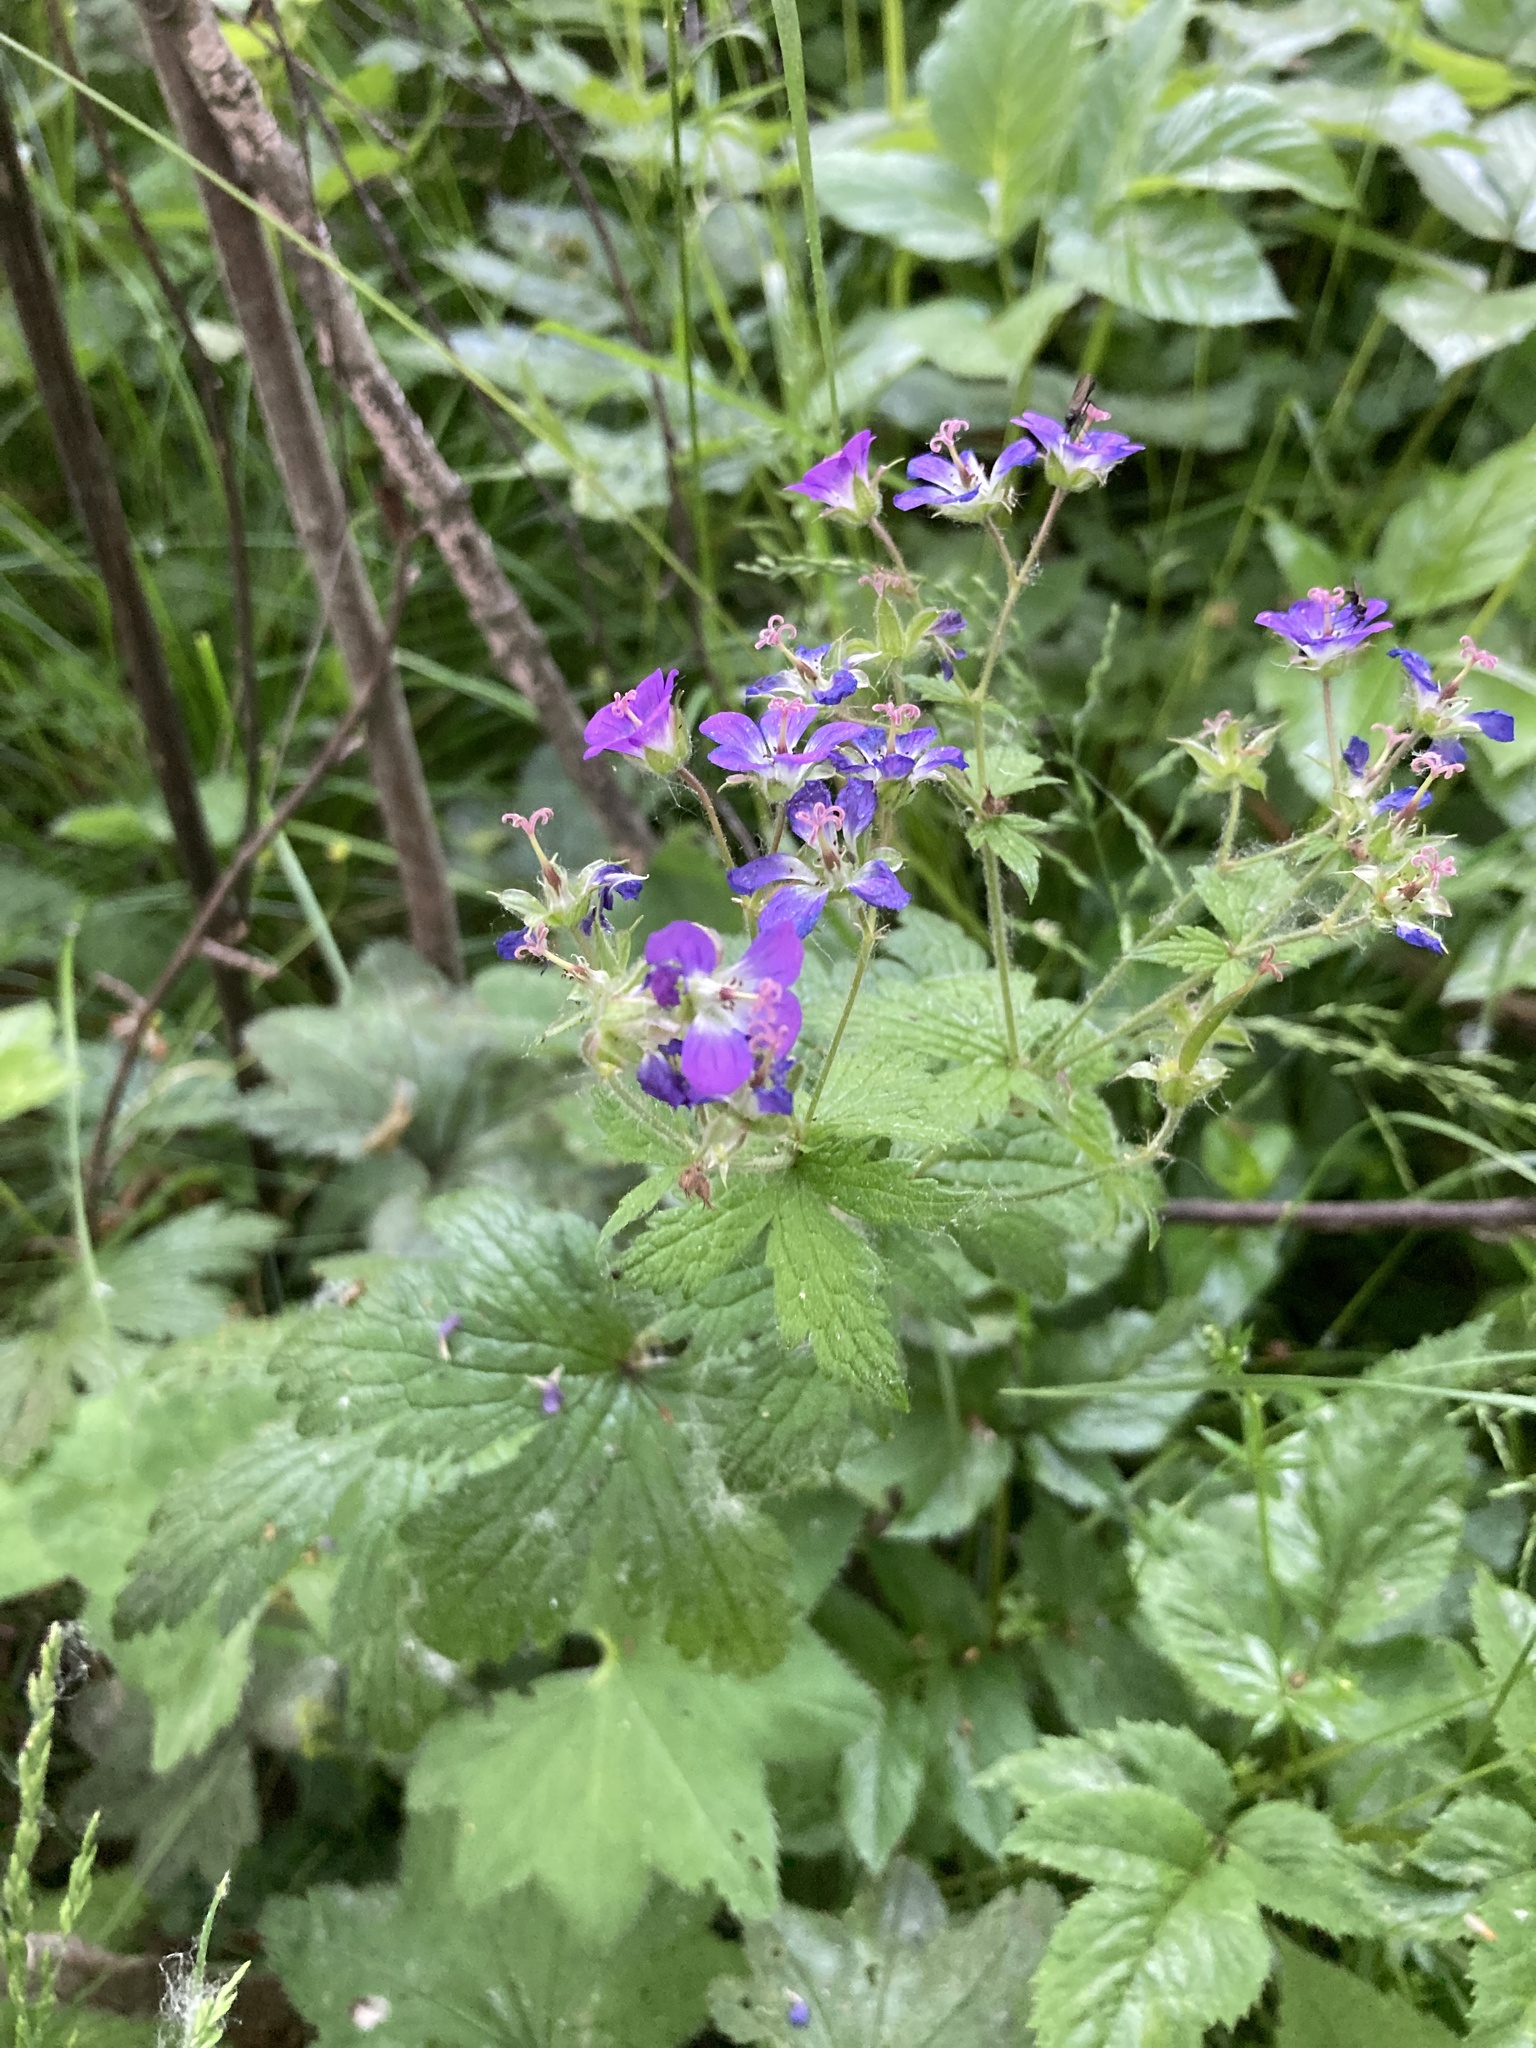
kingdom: Plantae
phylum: Tracheophyta
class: Magnoliopsida
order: Geraniales
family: Geraniaceae
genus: Geranium
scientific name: Geranium sylvaticum
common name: Wood crane's-bill
